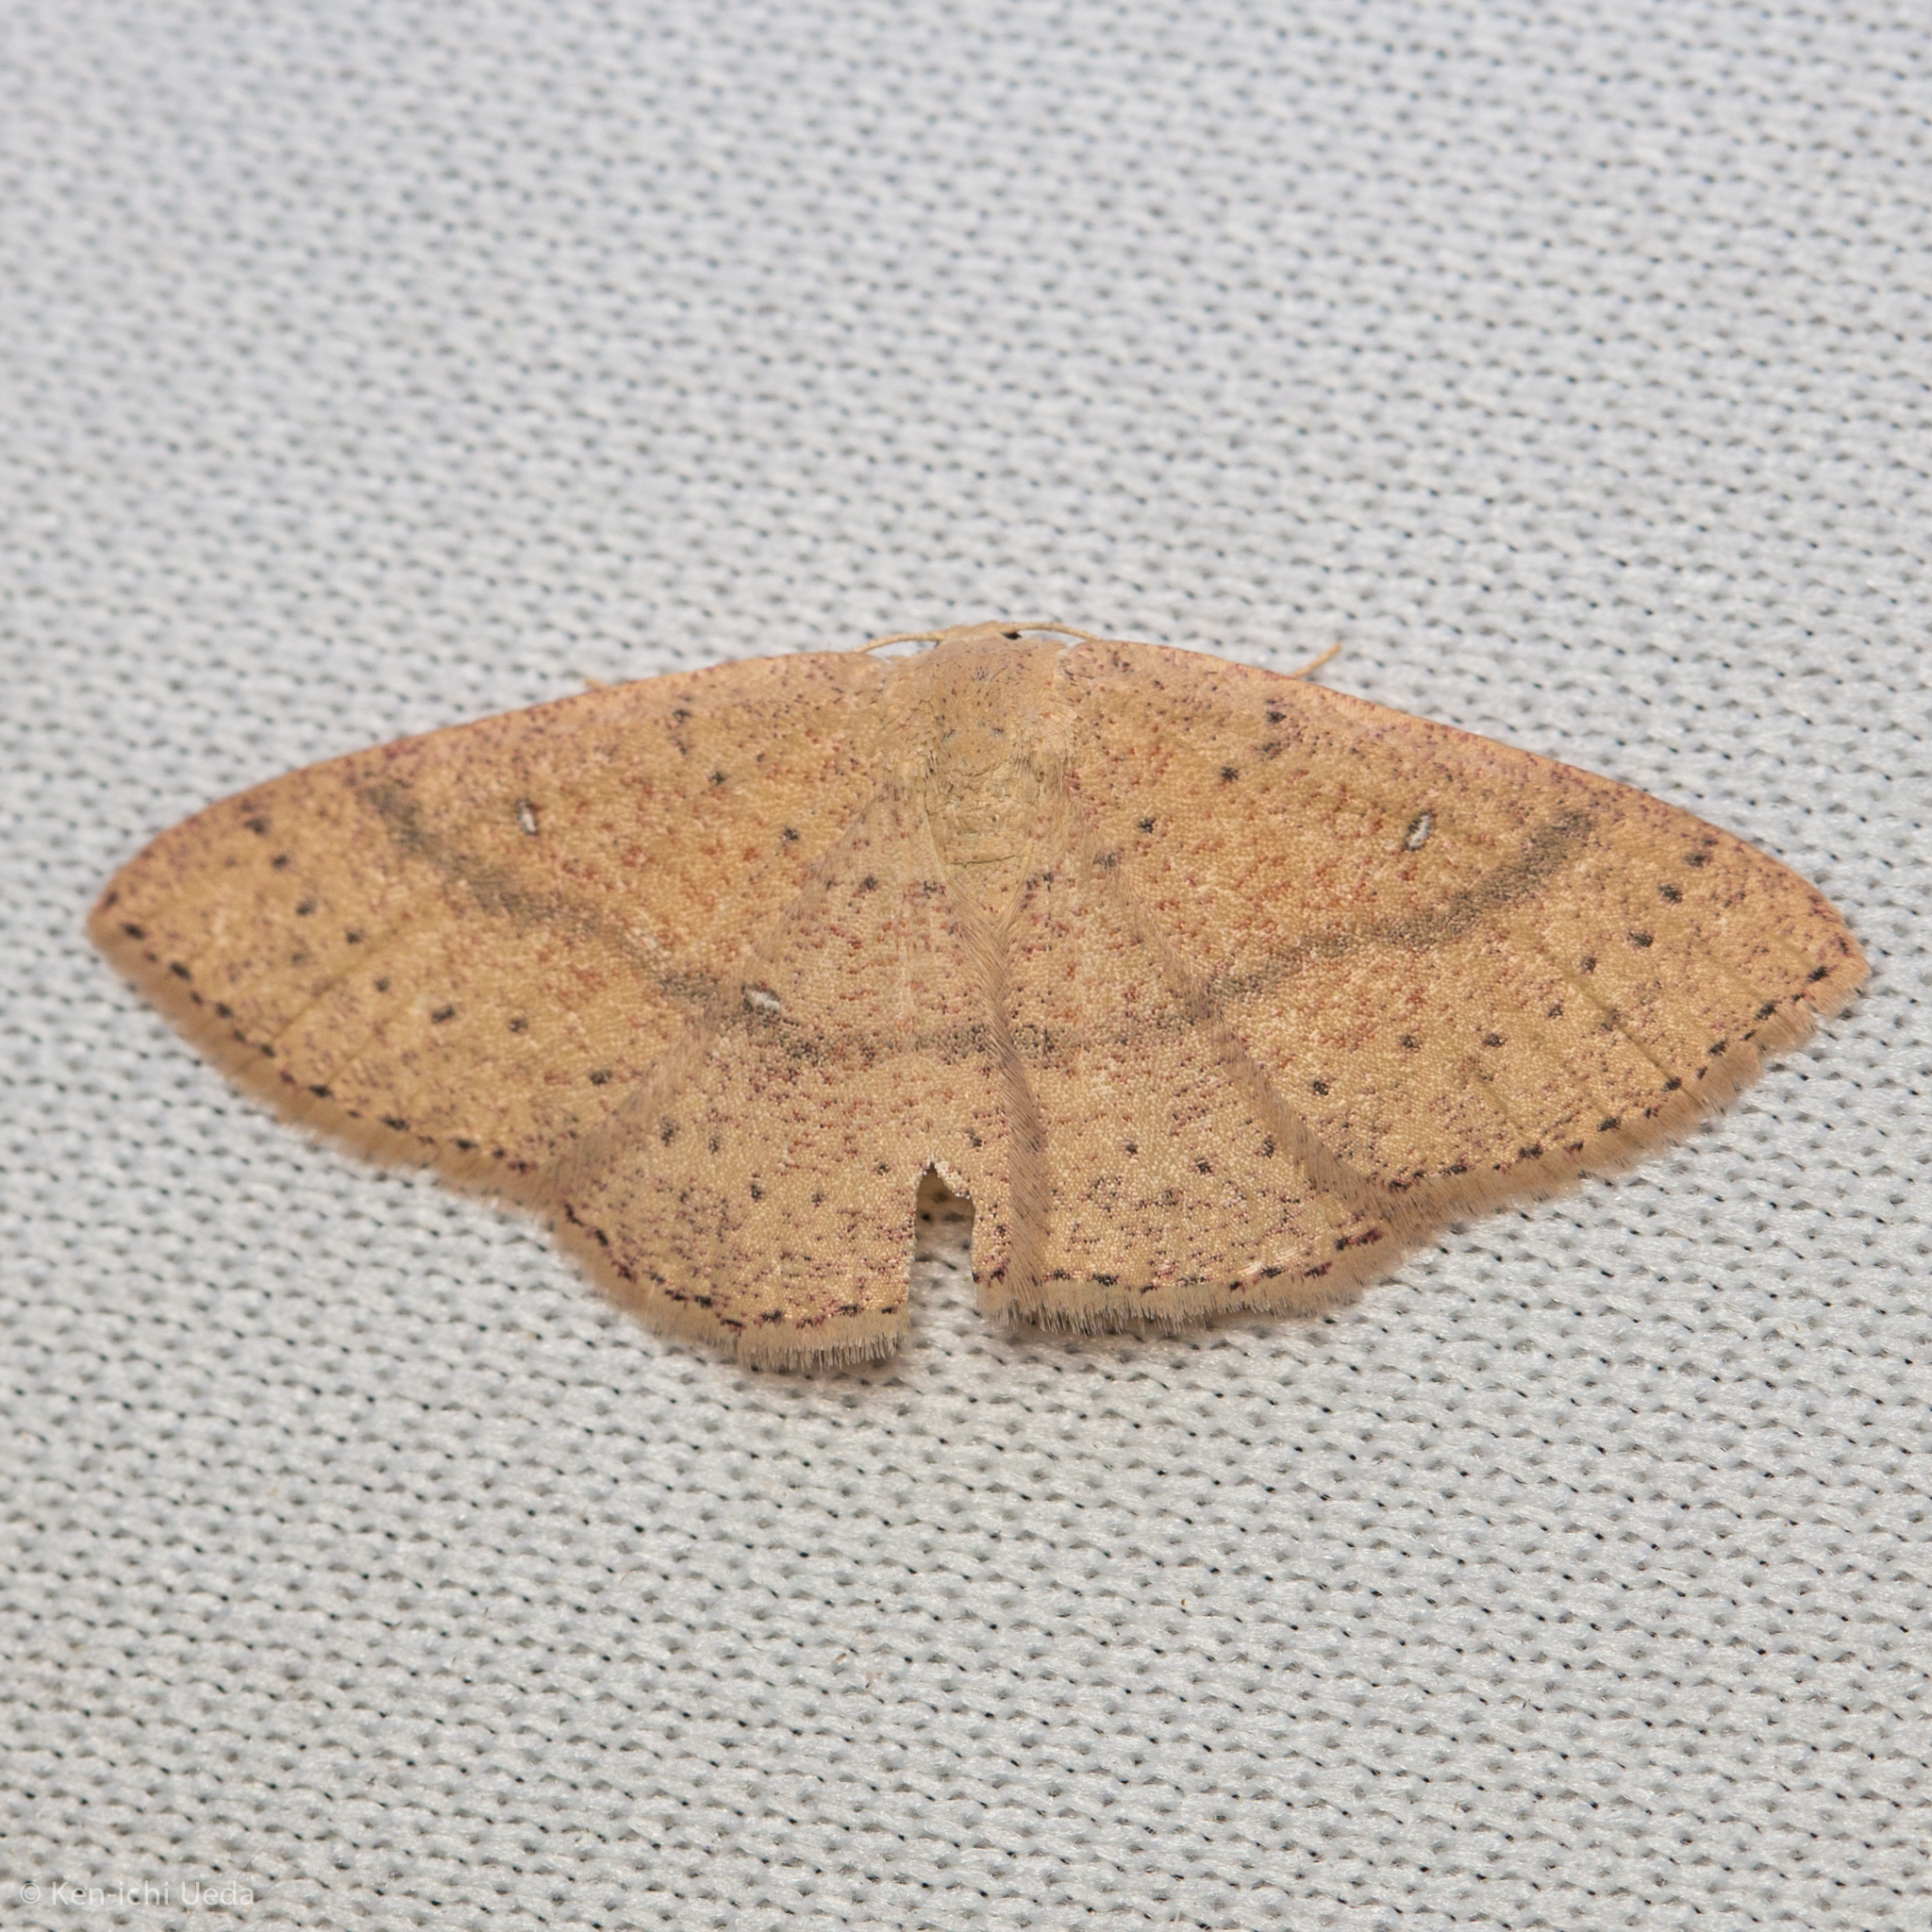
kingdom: Animalia
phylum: Arthropoda
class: Insecta
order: Lepidoptera
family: Geometridae
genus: Cyclophora
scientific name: Cyclophora dataria
